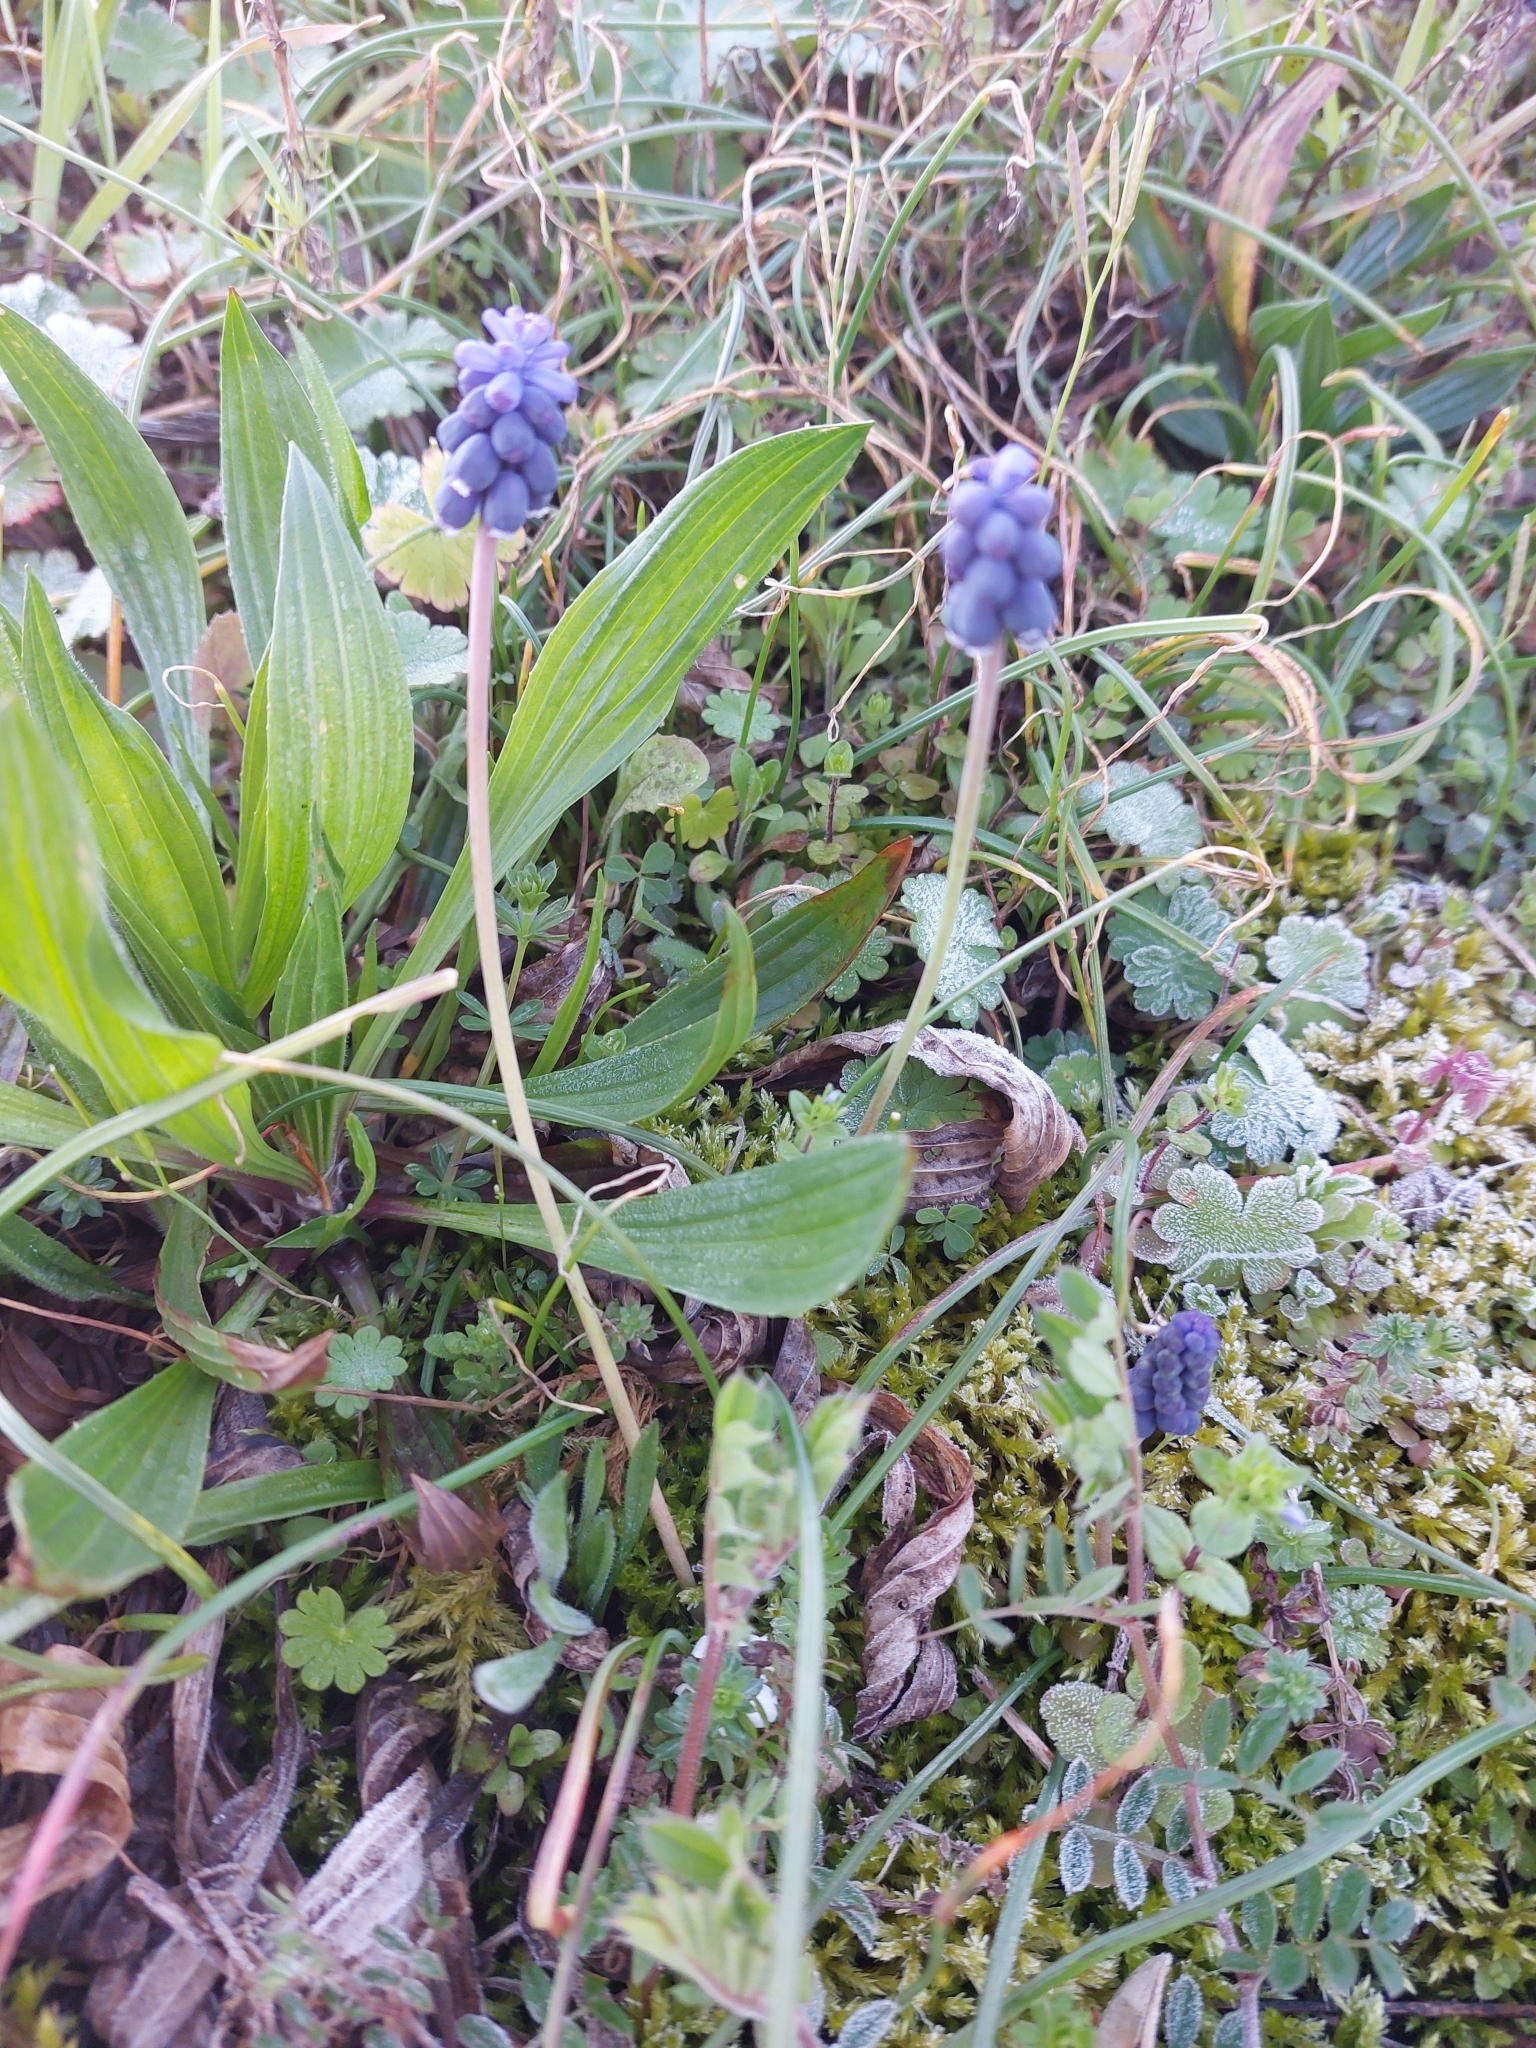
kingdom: Plantae
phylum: Tracheophyta
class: Liliopsida
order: Asparagales
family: Asparagaceae
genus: Muscari
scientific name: Muscari neglectum
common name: Grape-hyacinth
